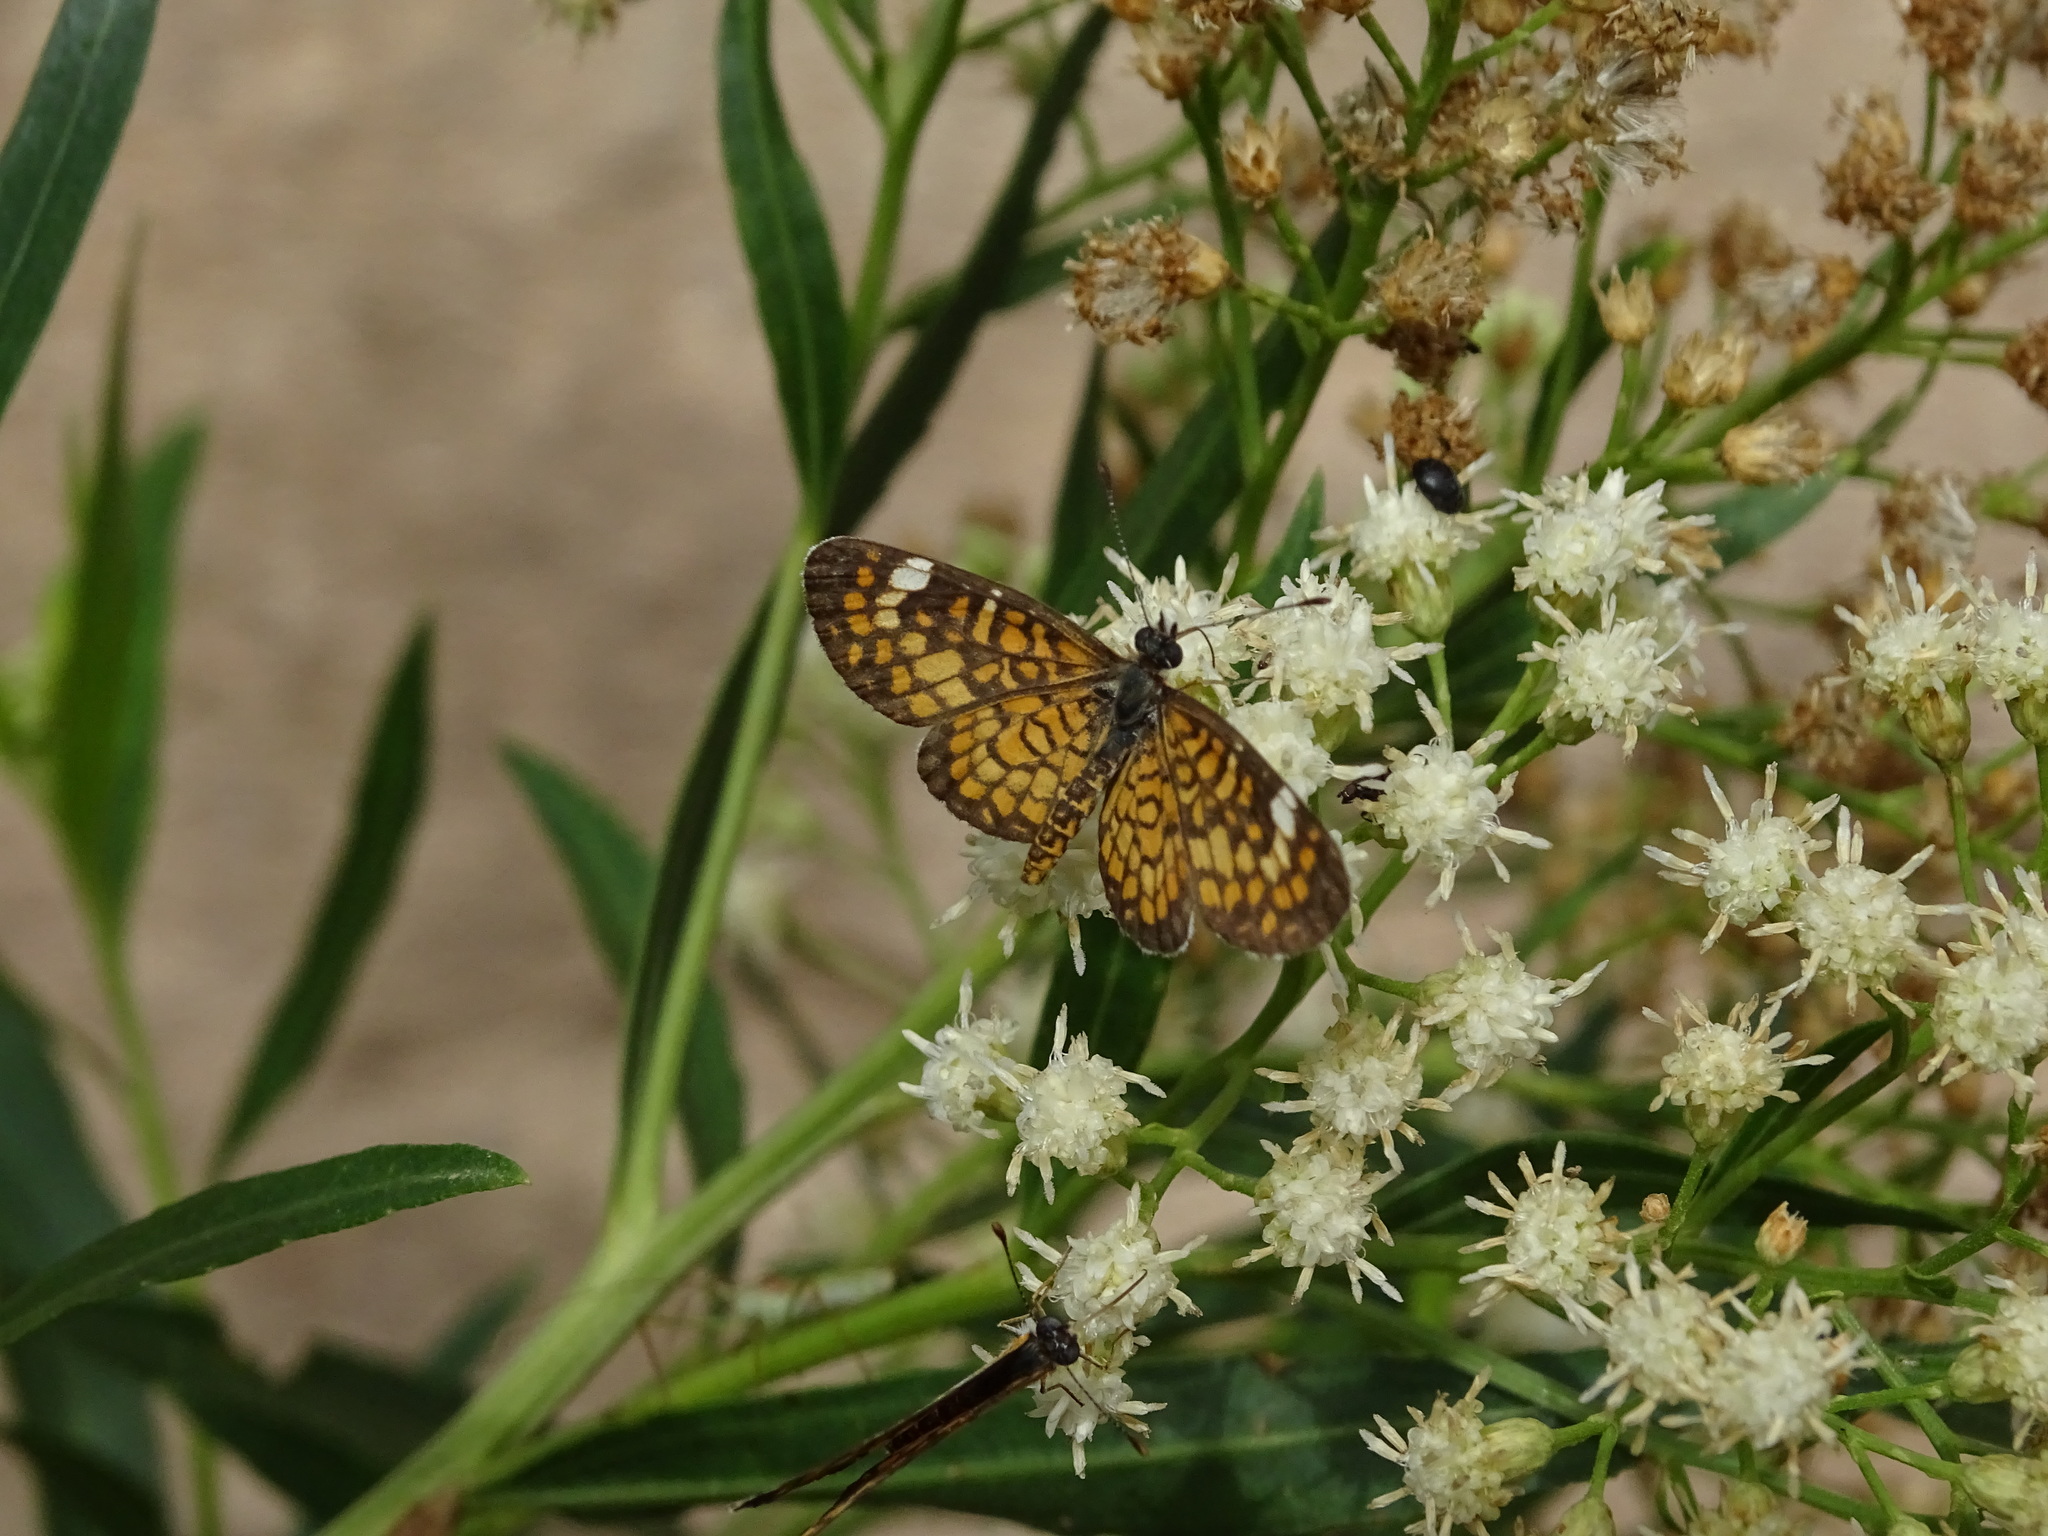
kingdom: Animalia
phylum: Arthropoda
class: Insecta
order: Lepidoptera
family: Nymphalidae
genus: Dymasia
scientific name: Dymasia dymas
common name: Tiny checkerspot
